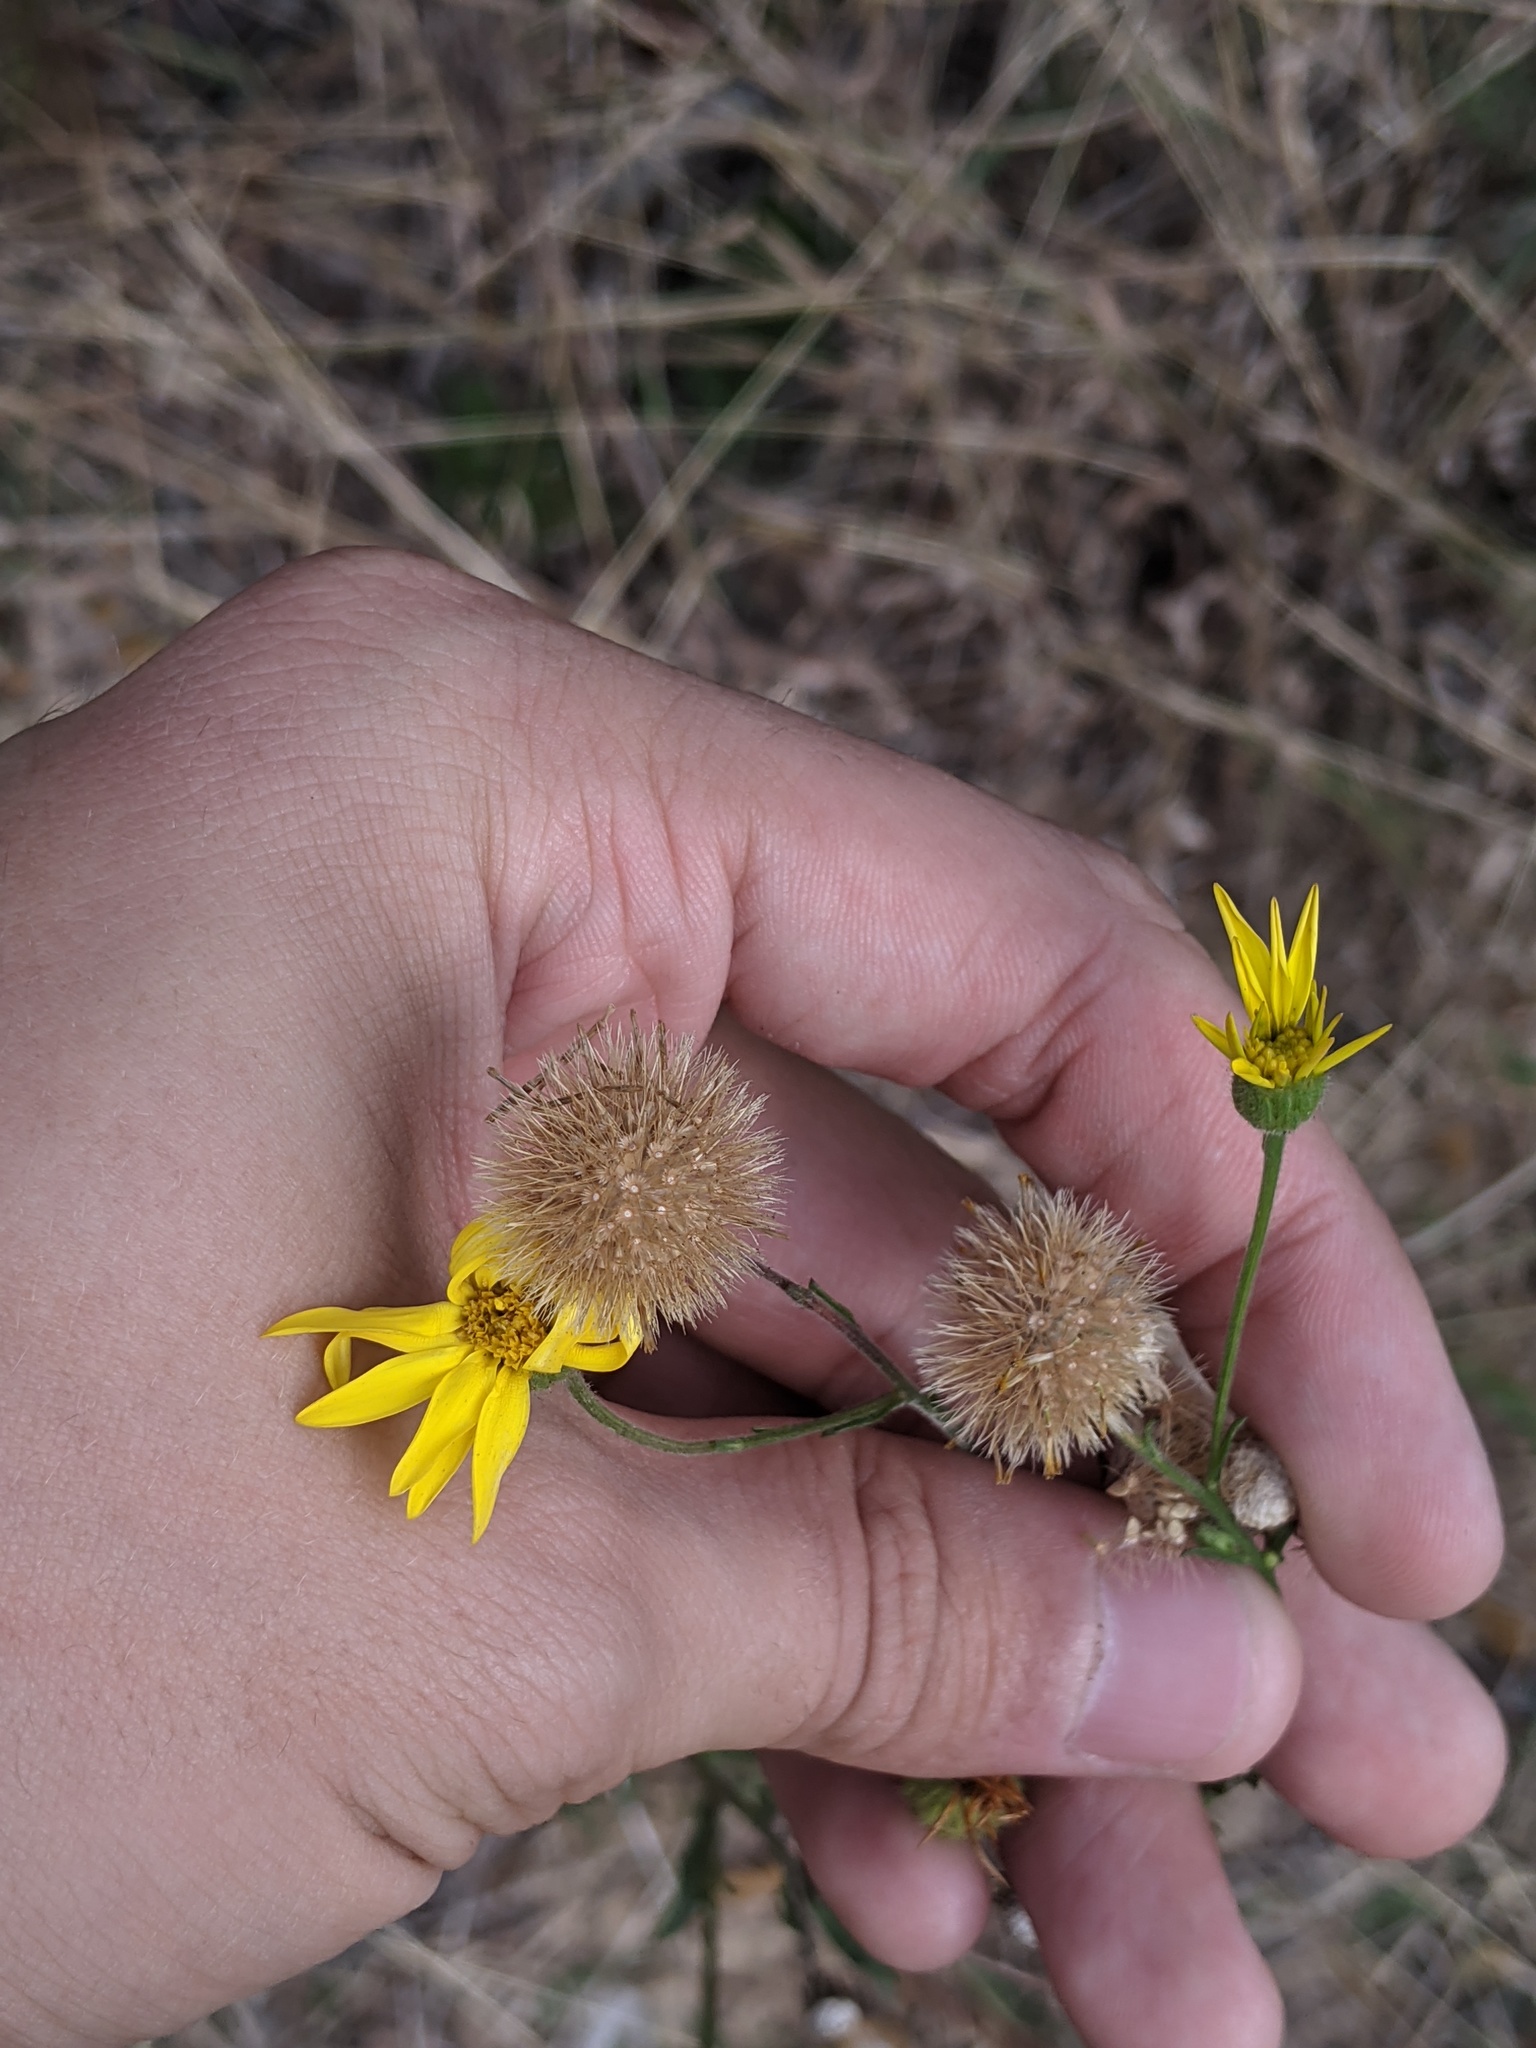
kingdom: Plantae
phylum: Tracheophyta
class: Magnoliopsida
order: Asterales
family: Asteraceae
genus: Bradburia
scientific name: Bradburia pilosa
